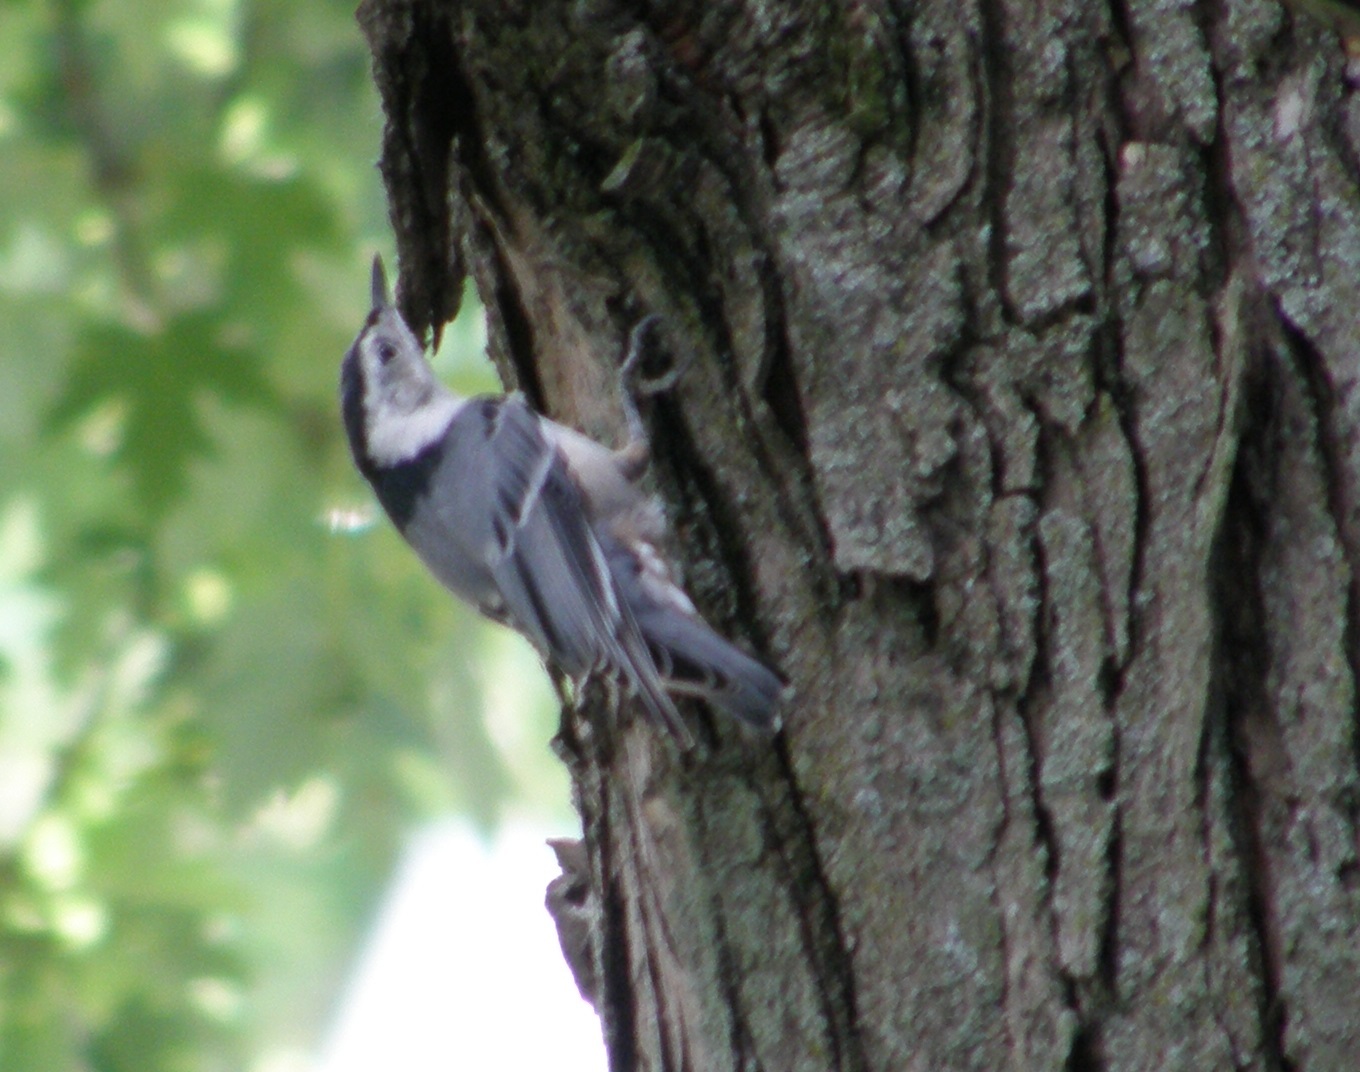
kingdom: Animalia
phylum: Chordata
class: Aves
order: Passeriformes
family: Sittidae
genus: Sitta
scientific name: Sitta carolinensis
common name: White-breasted nuthatch
